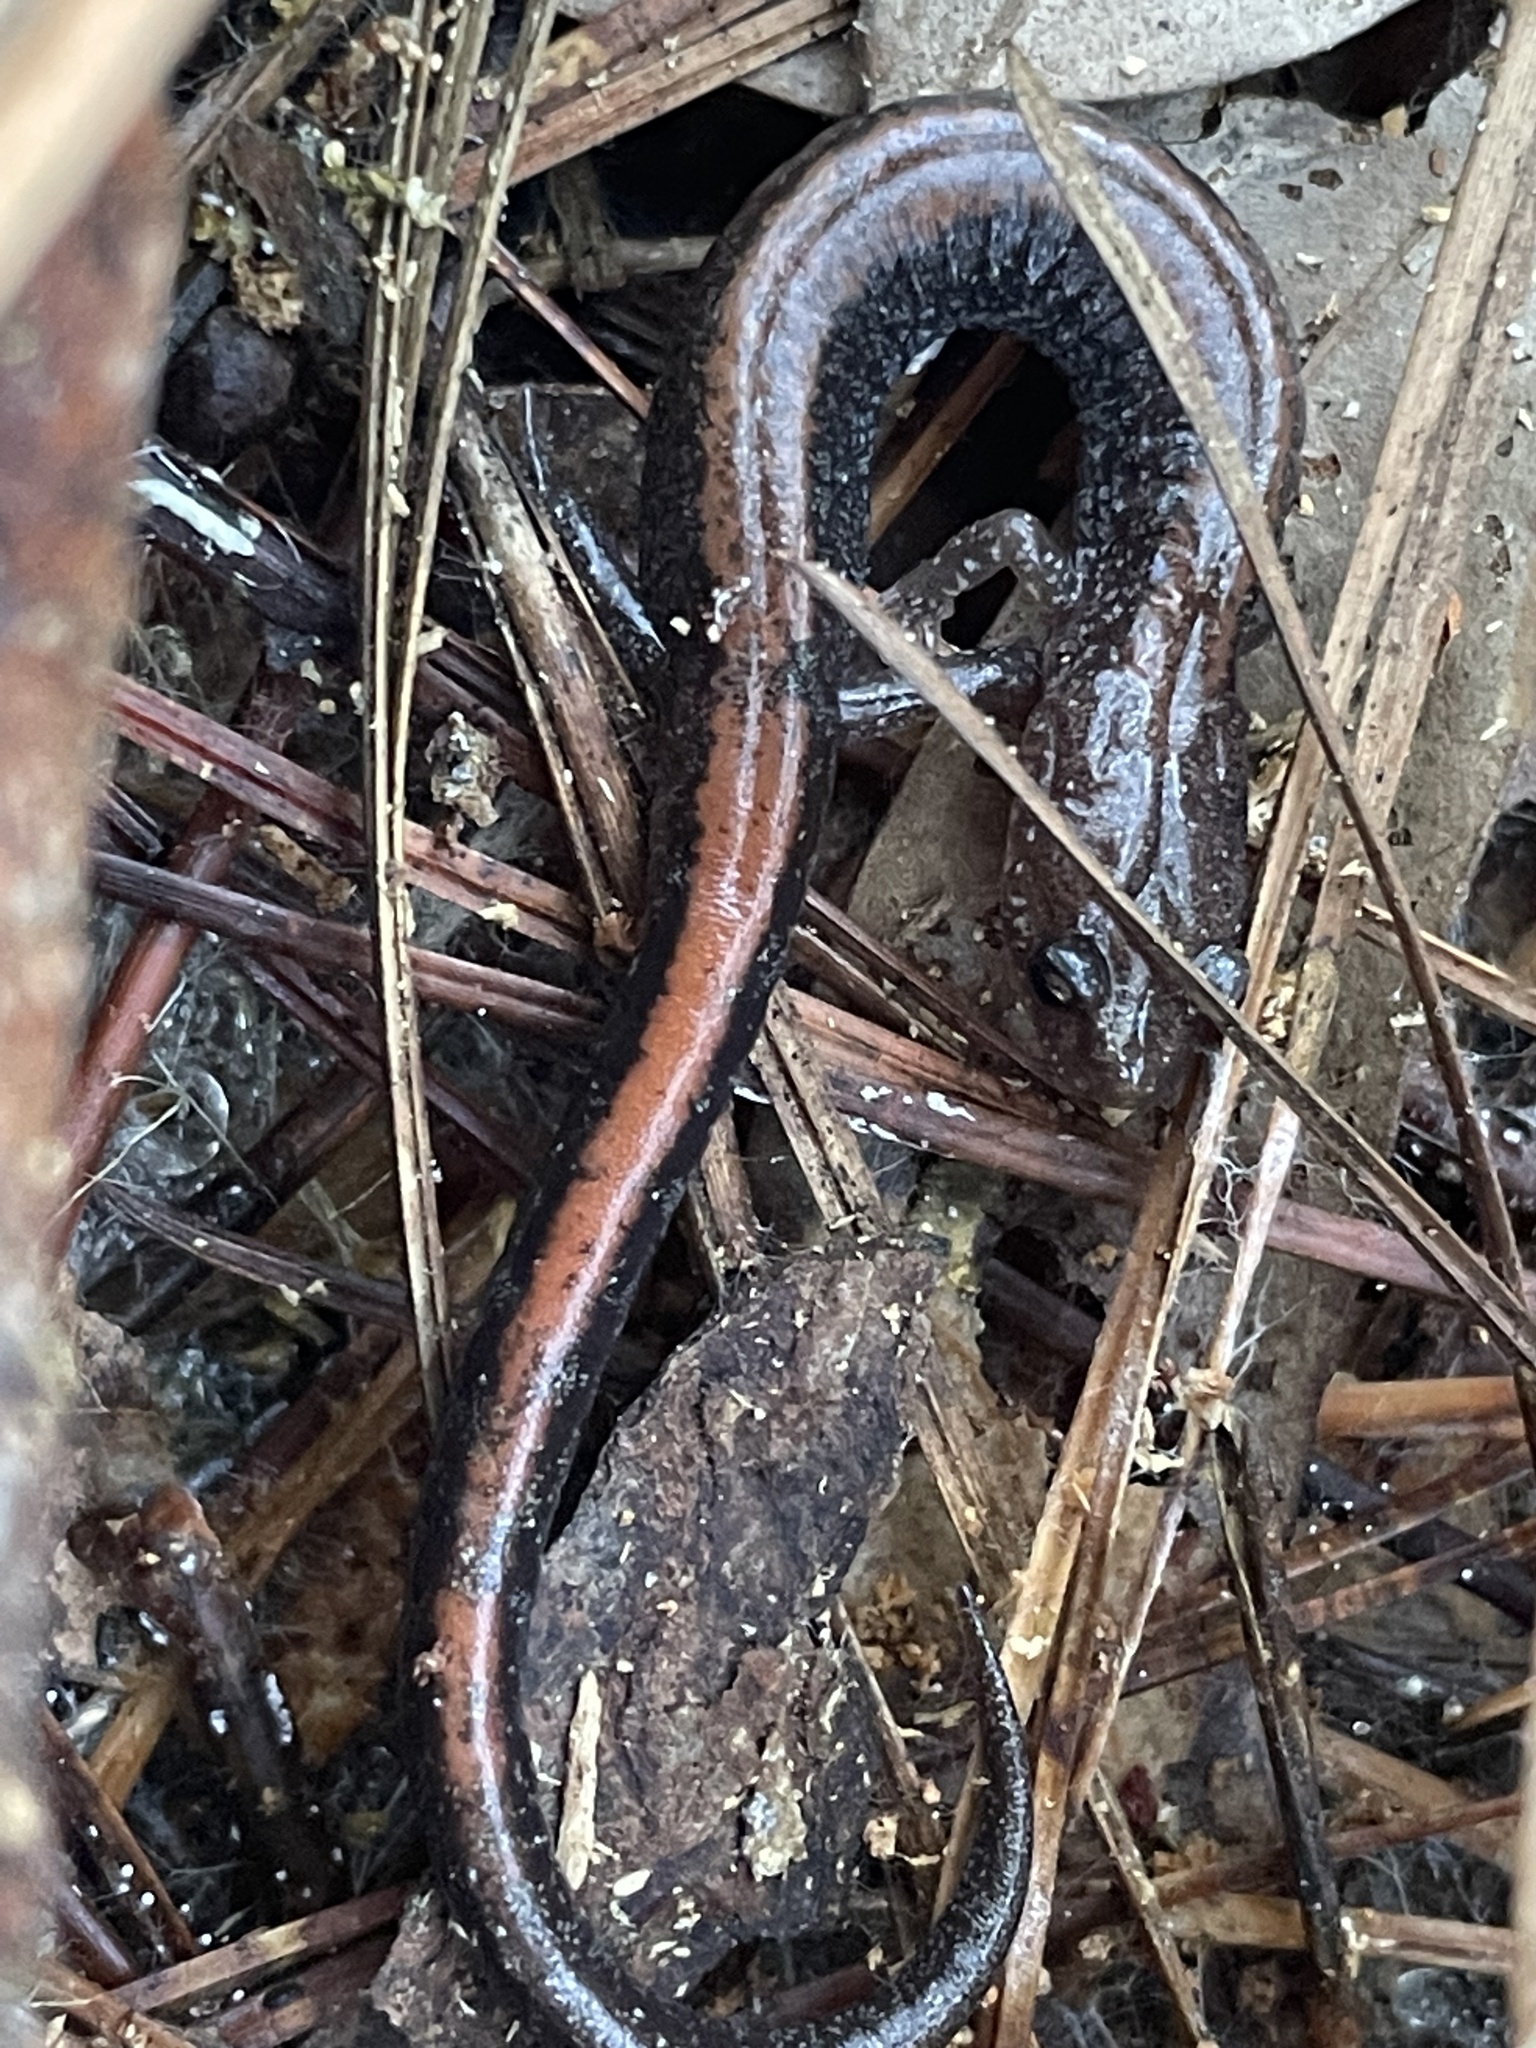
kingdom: Animalia
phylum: Chordata
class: Amphibia
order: Caudata
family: Plethodontidae
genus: Plethodon
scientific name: Plethodon cinereus
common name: Redback salamander
